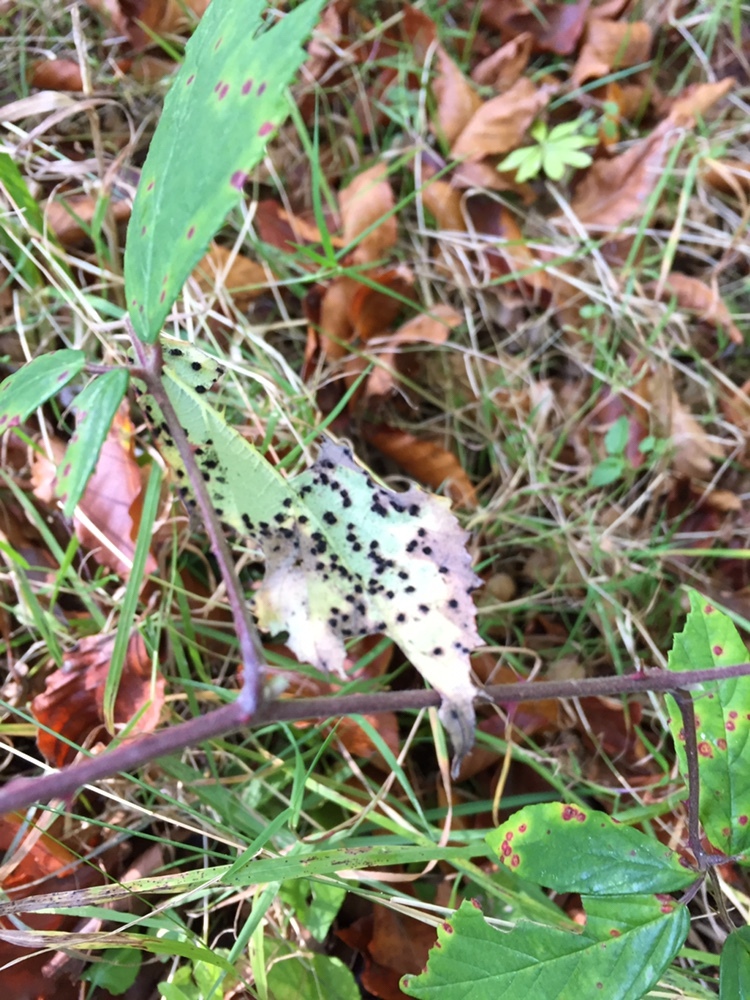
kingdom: Fungi
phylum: Basidiomycota
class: Pucciniomycetes
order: Pucciniales
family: Phragmidiaceae
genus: Phragmidium
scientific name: Phragmidium violaceum
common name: Violet bramble rust
